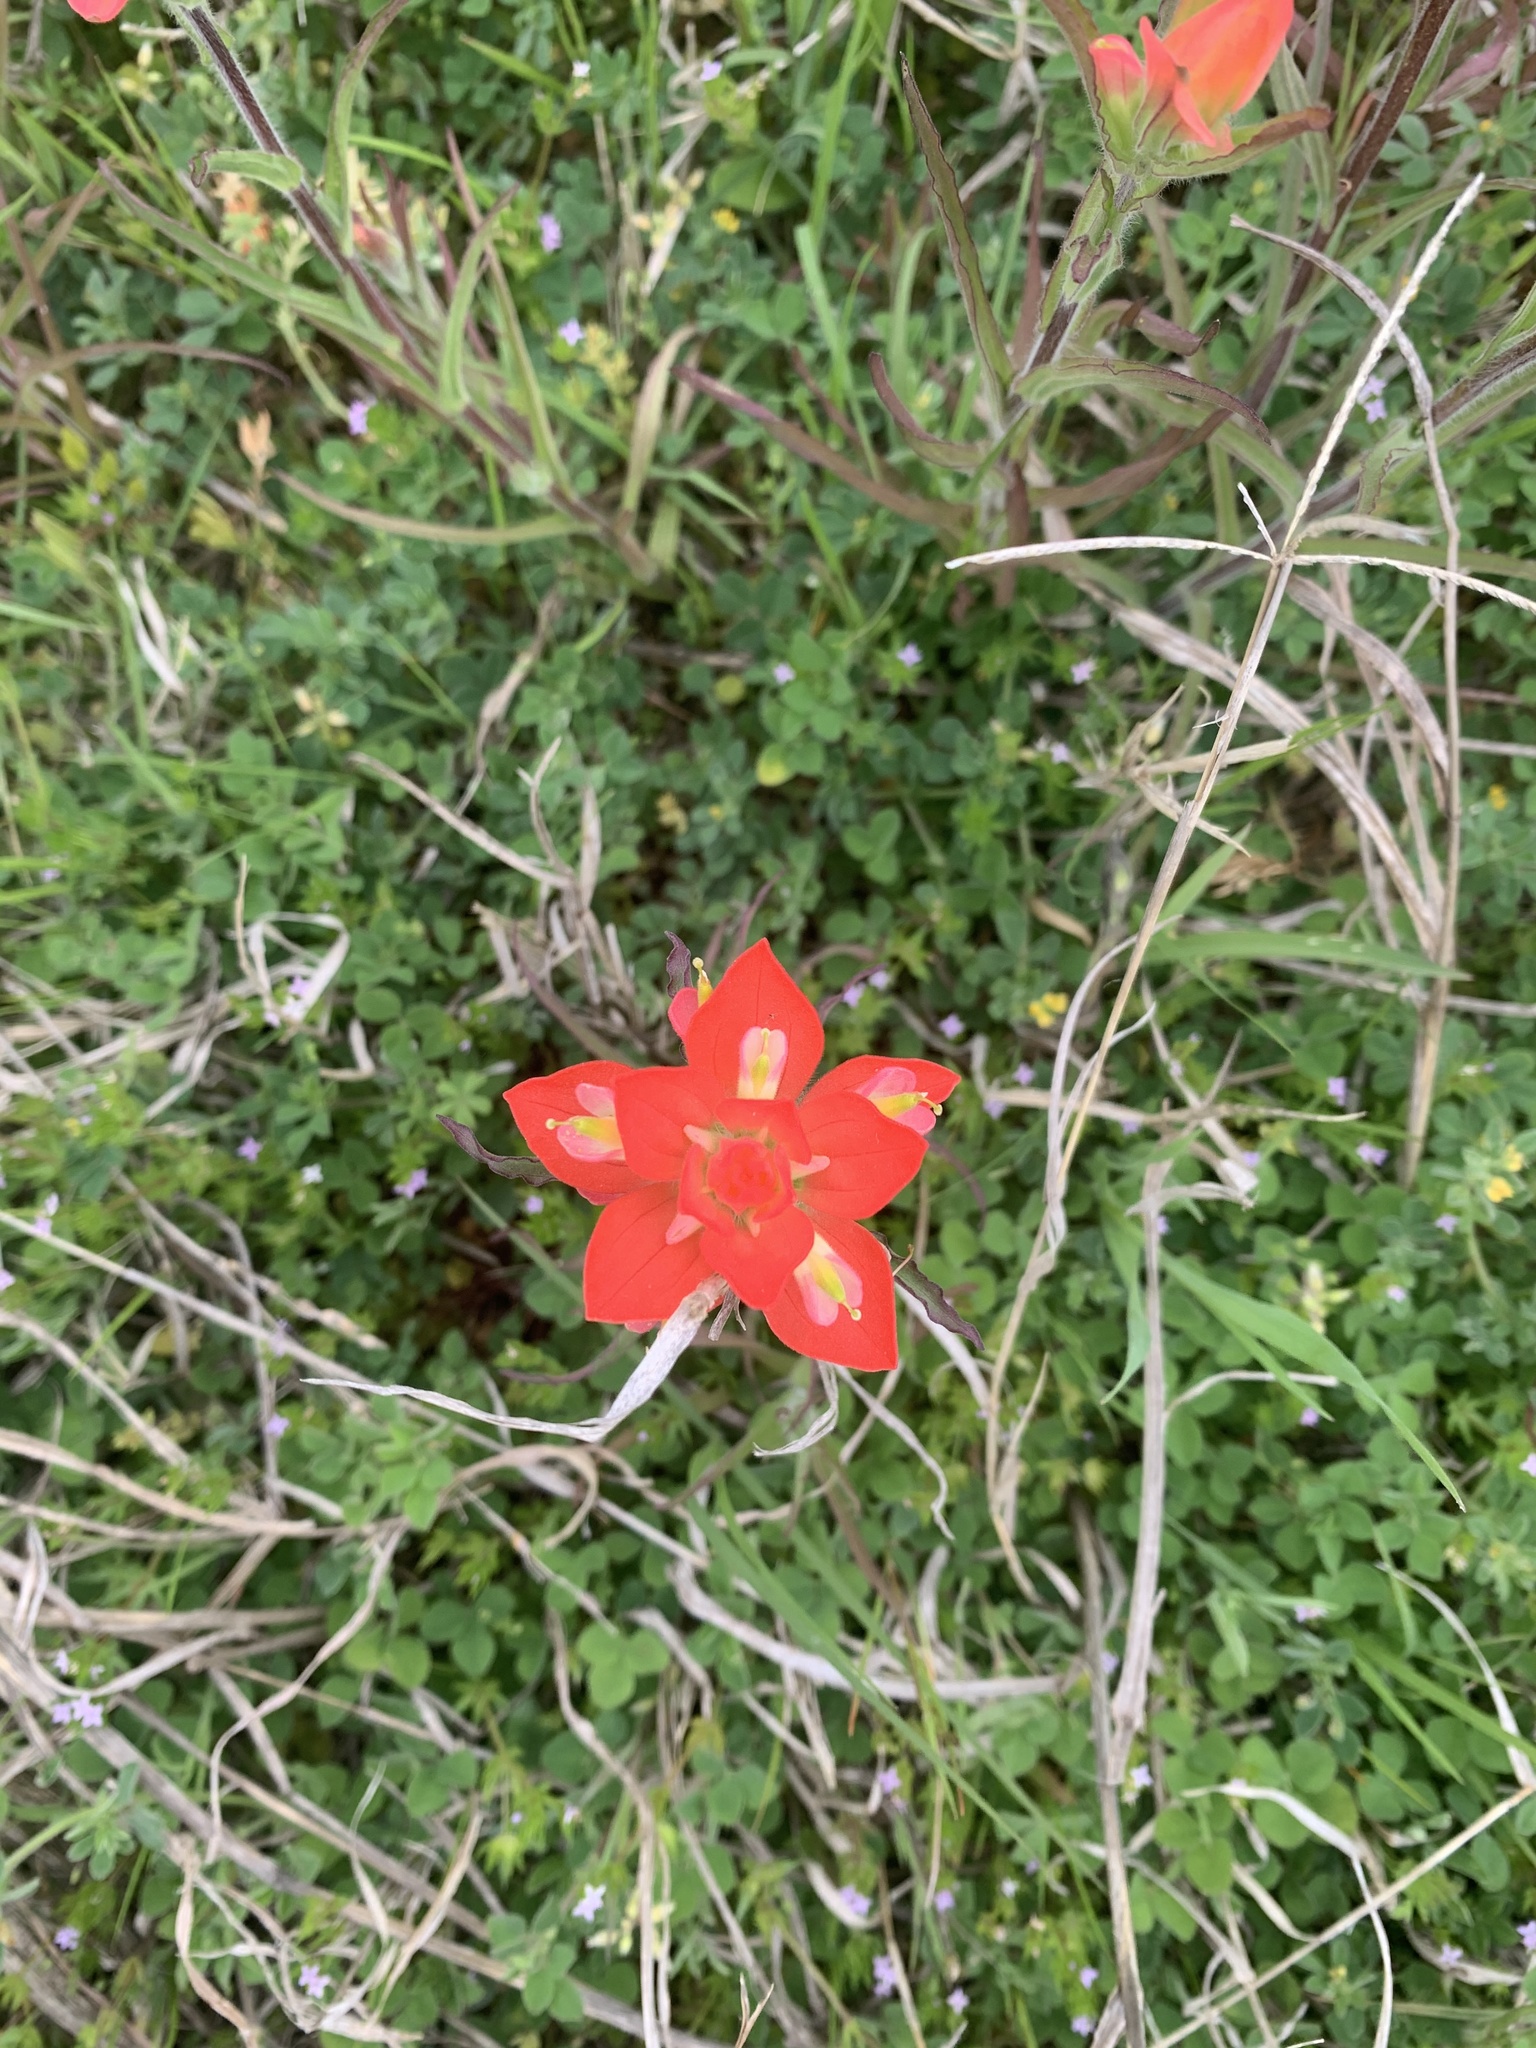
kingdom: Plantae
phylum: Tracheophyta
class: Magnoliopsida
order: Lamiales
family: Orobanchaceae
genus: Castilleja
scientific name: Castilleja indivisa
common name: Texas paintbrush
